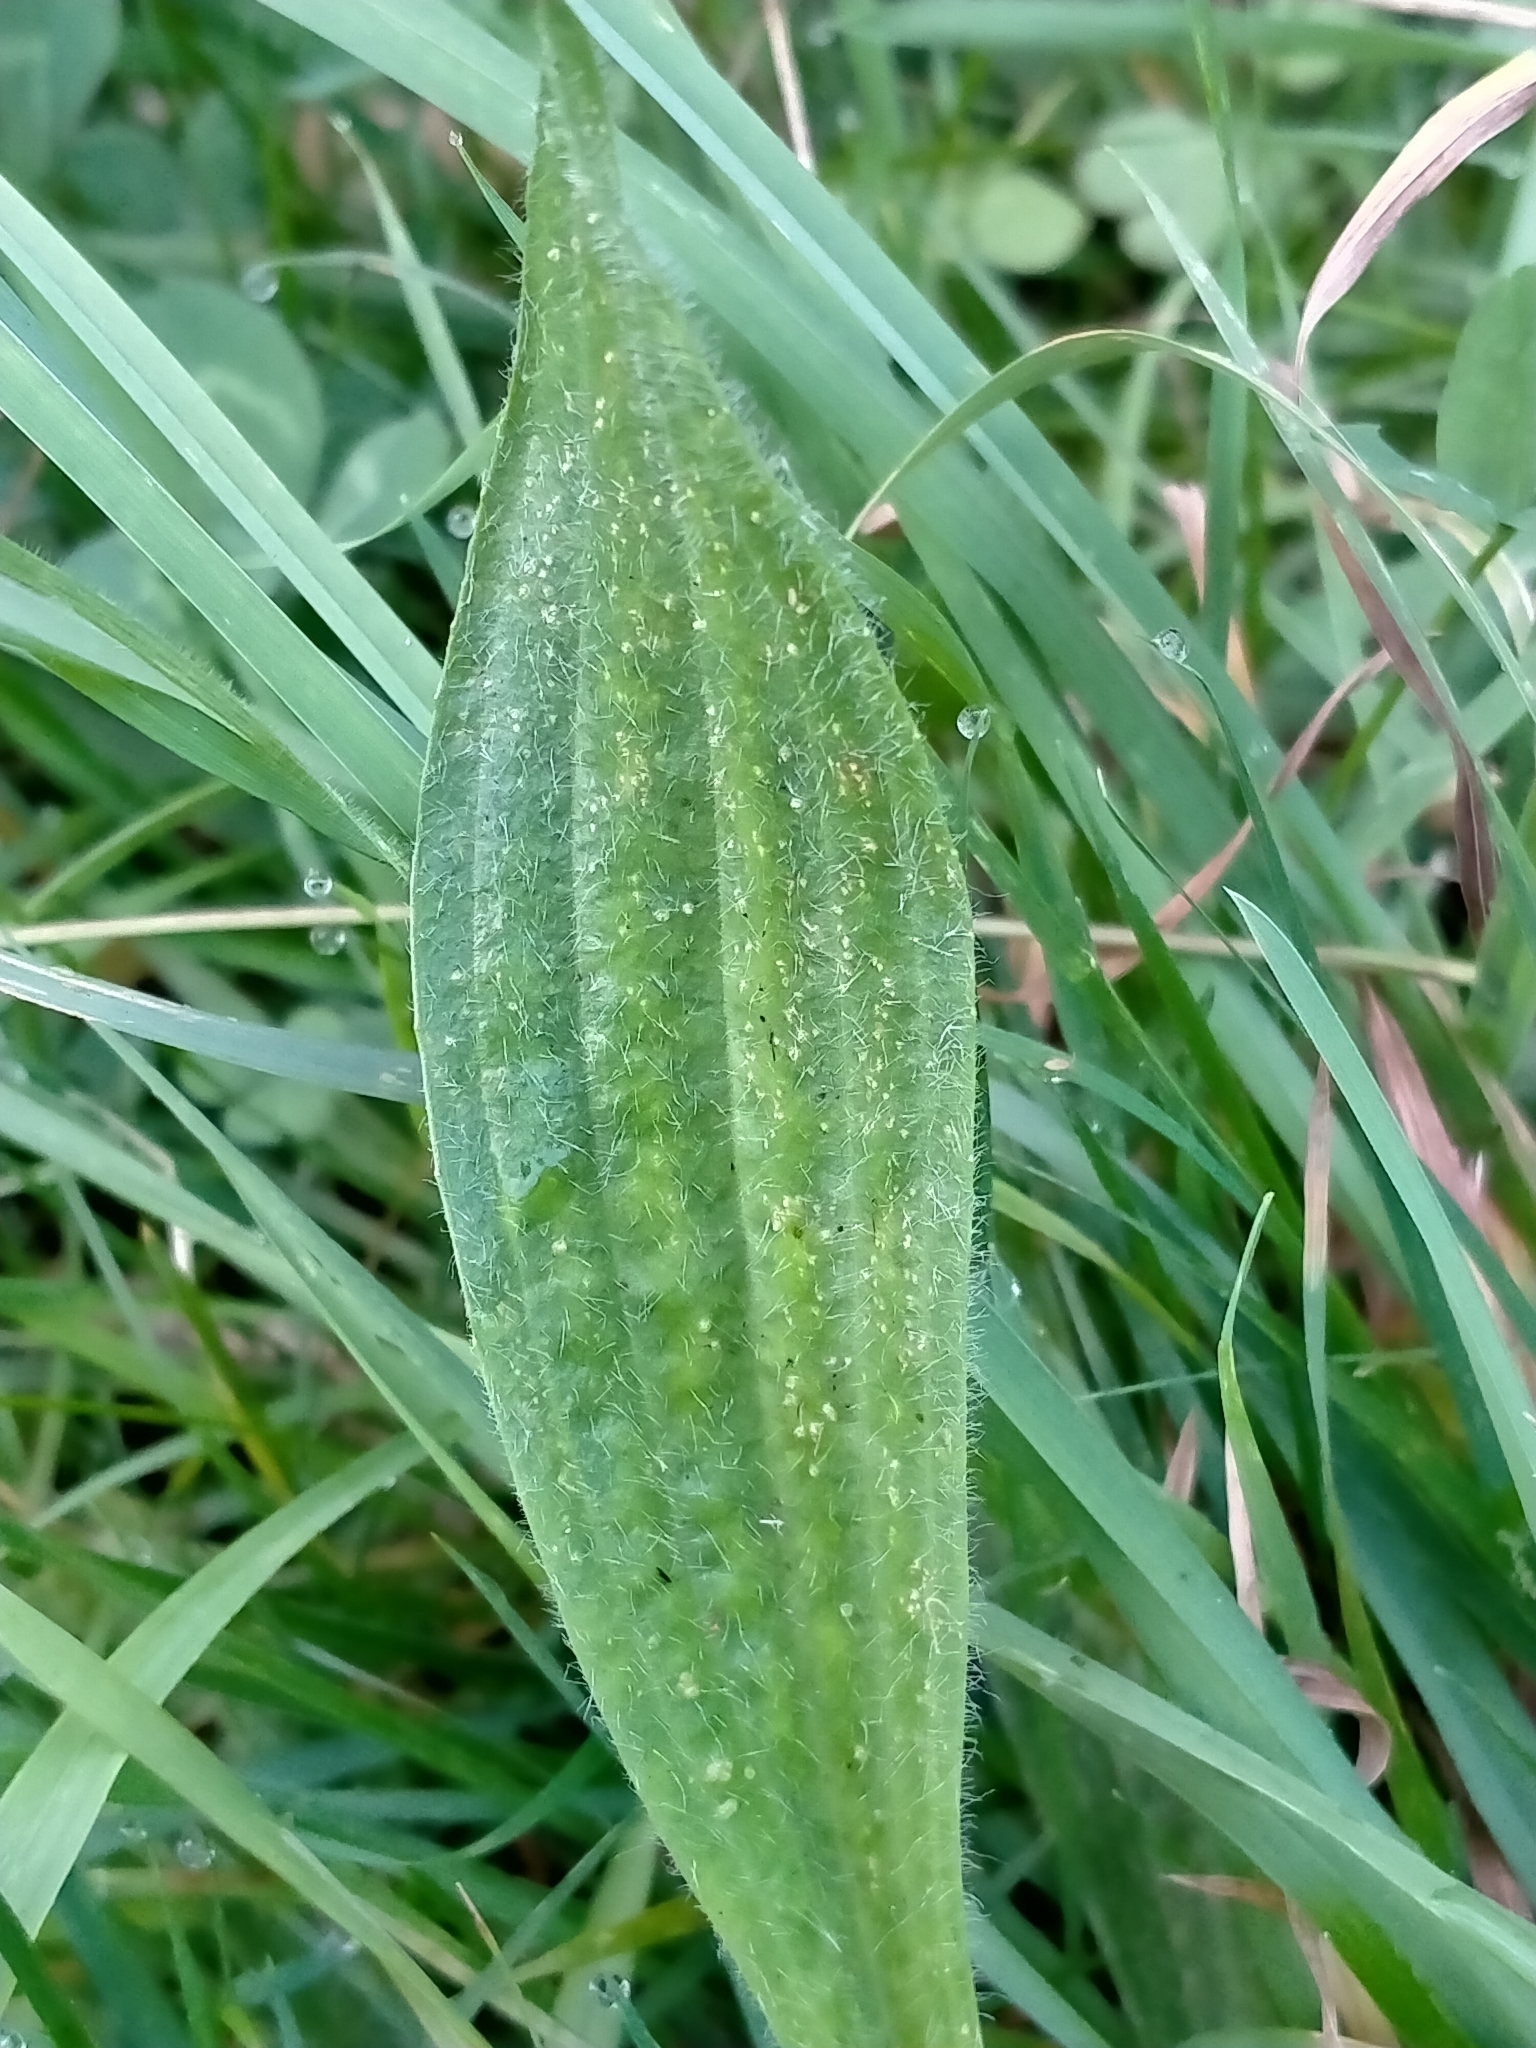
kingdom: Plantae
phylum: Tracheophyta
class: Magnoliopsida
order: Lamiales
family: Plantaginaceae
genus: Plantago
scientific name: Plantago lanceolata
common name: Ribwort plantain
